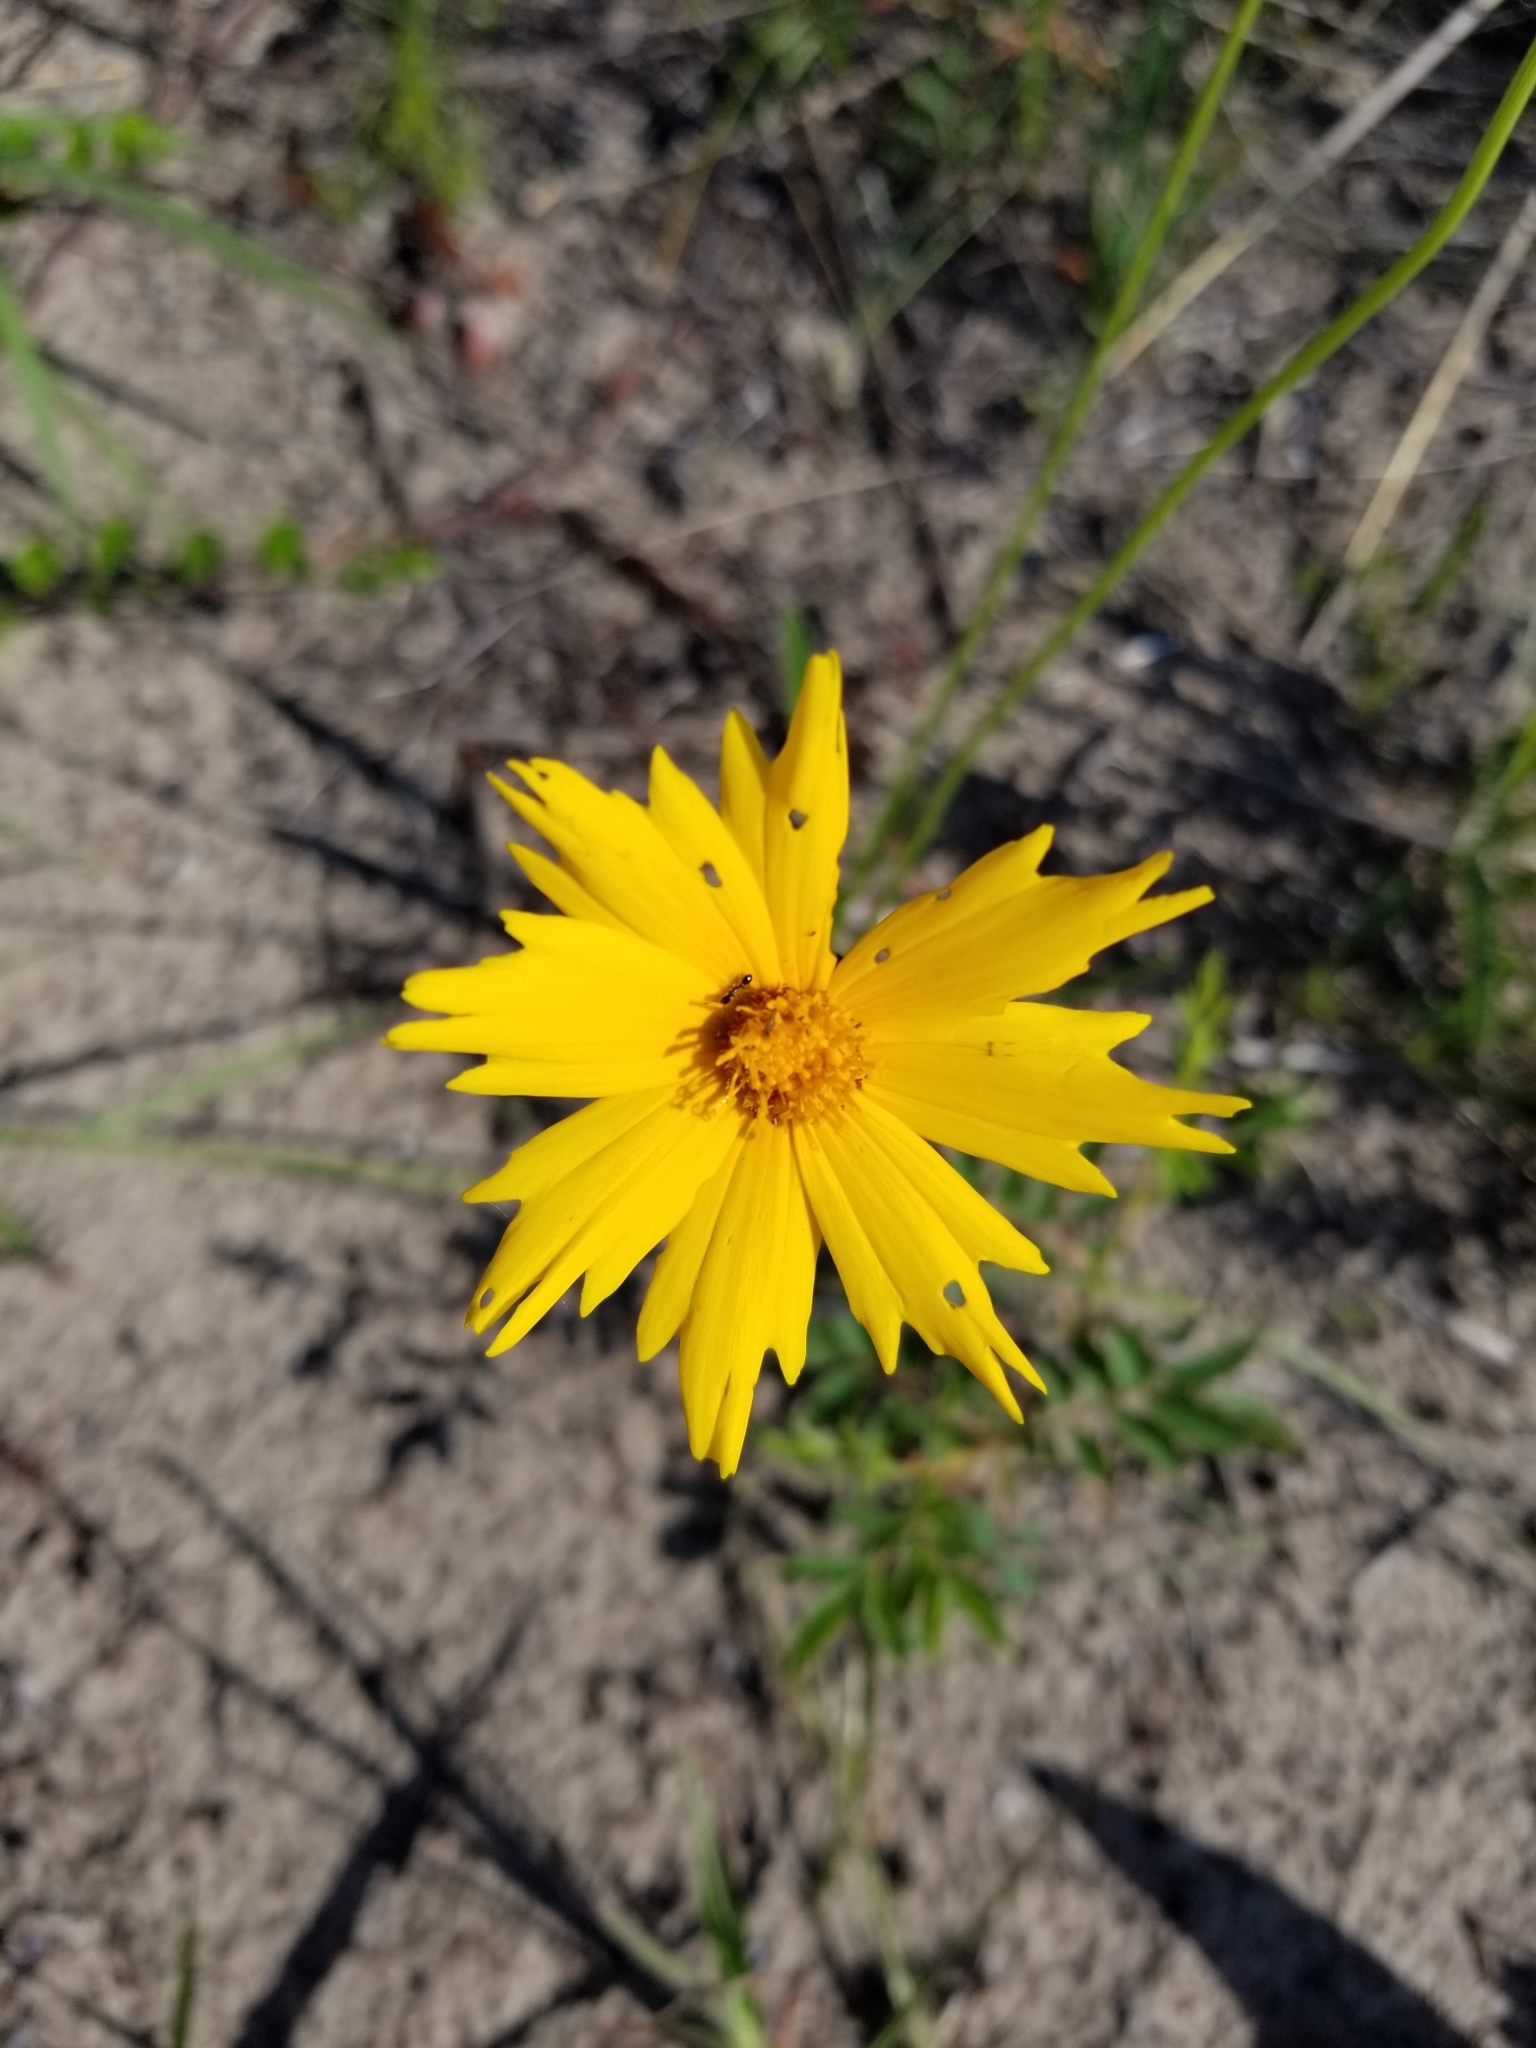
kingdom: Plantae
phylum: Tracheophyta
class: Magnoliopsida
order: Asterales
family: Asteraceae
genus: Coreopsis
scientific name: Coreopsis lanceolata
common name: Garden coreopsis
